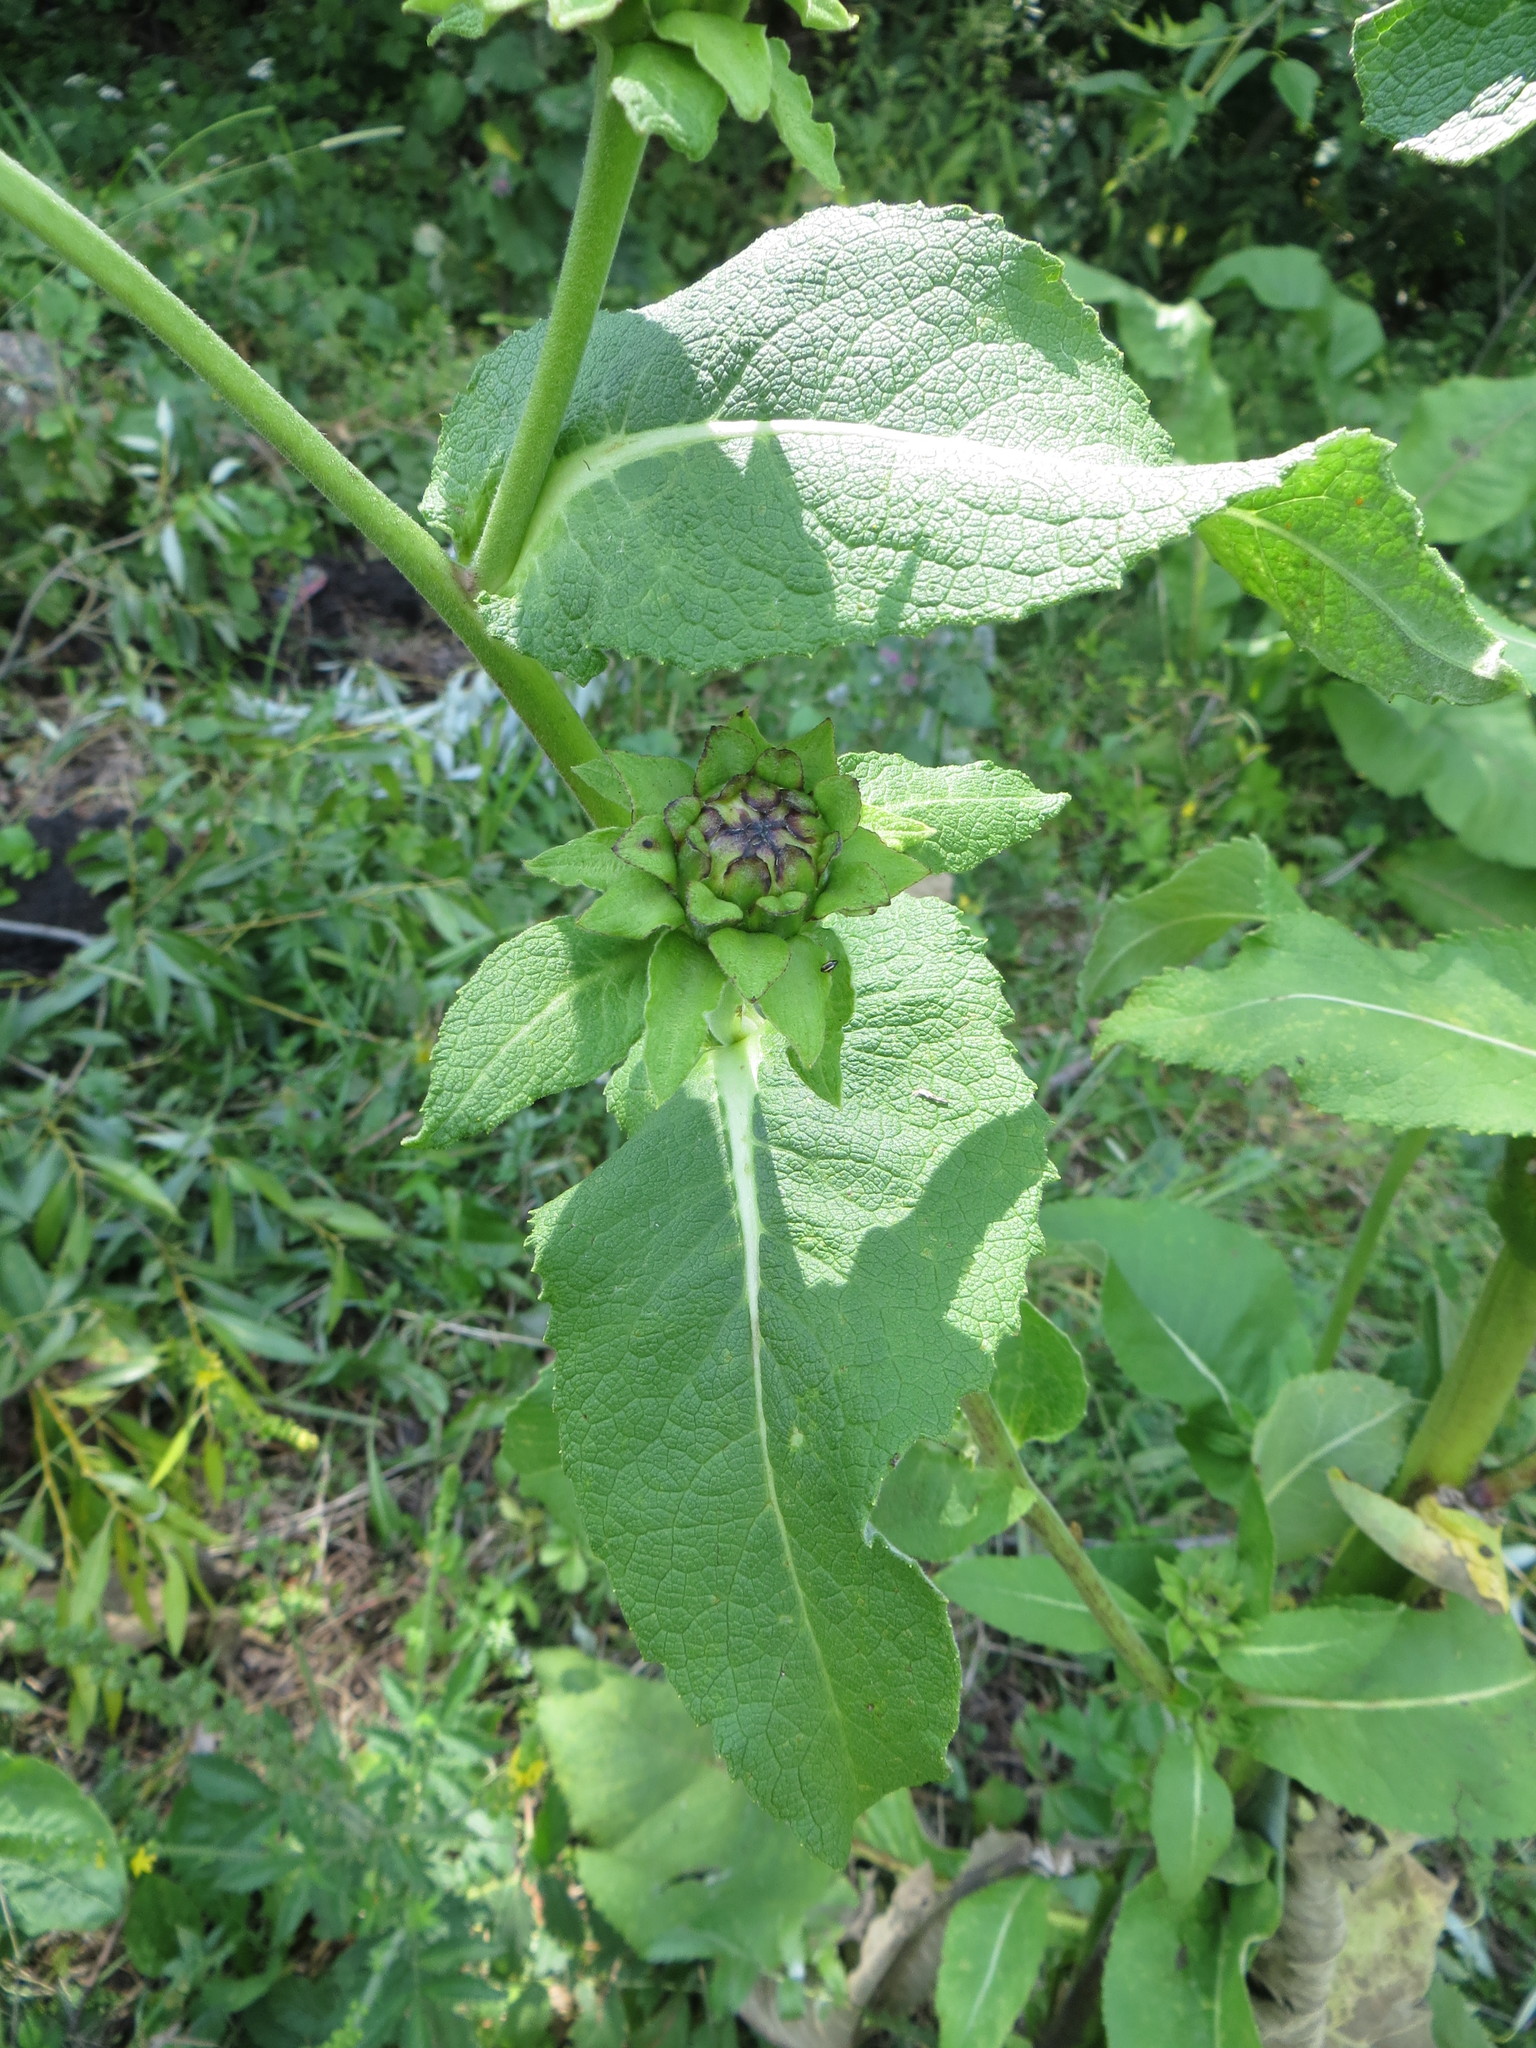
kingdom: Plantae
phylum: Tracheophyta
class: Magnoliopsida
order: Asterales
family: Asteraceae
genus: Inula
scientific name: Inula helenium
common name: Elecampane
